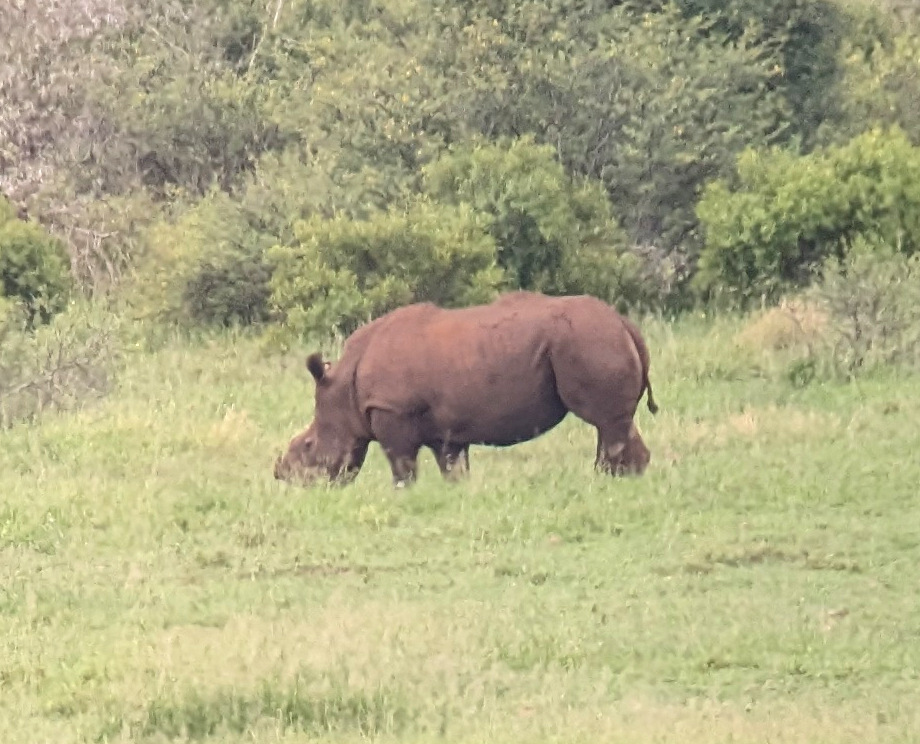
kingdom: Animalia
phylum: Chordata
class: Mammalia
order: Perissodactyla
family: Rhinocerotidae
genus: Ceratotherium
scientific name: Ceratotherium simum
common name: White rhinoceros
